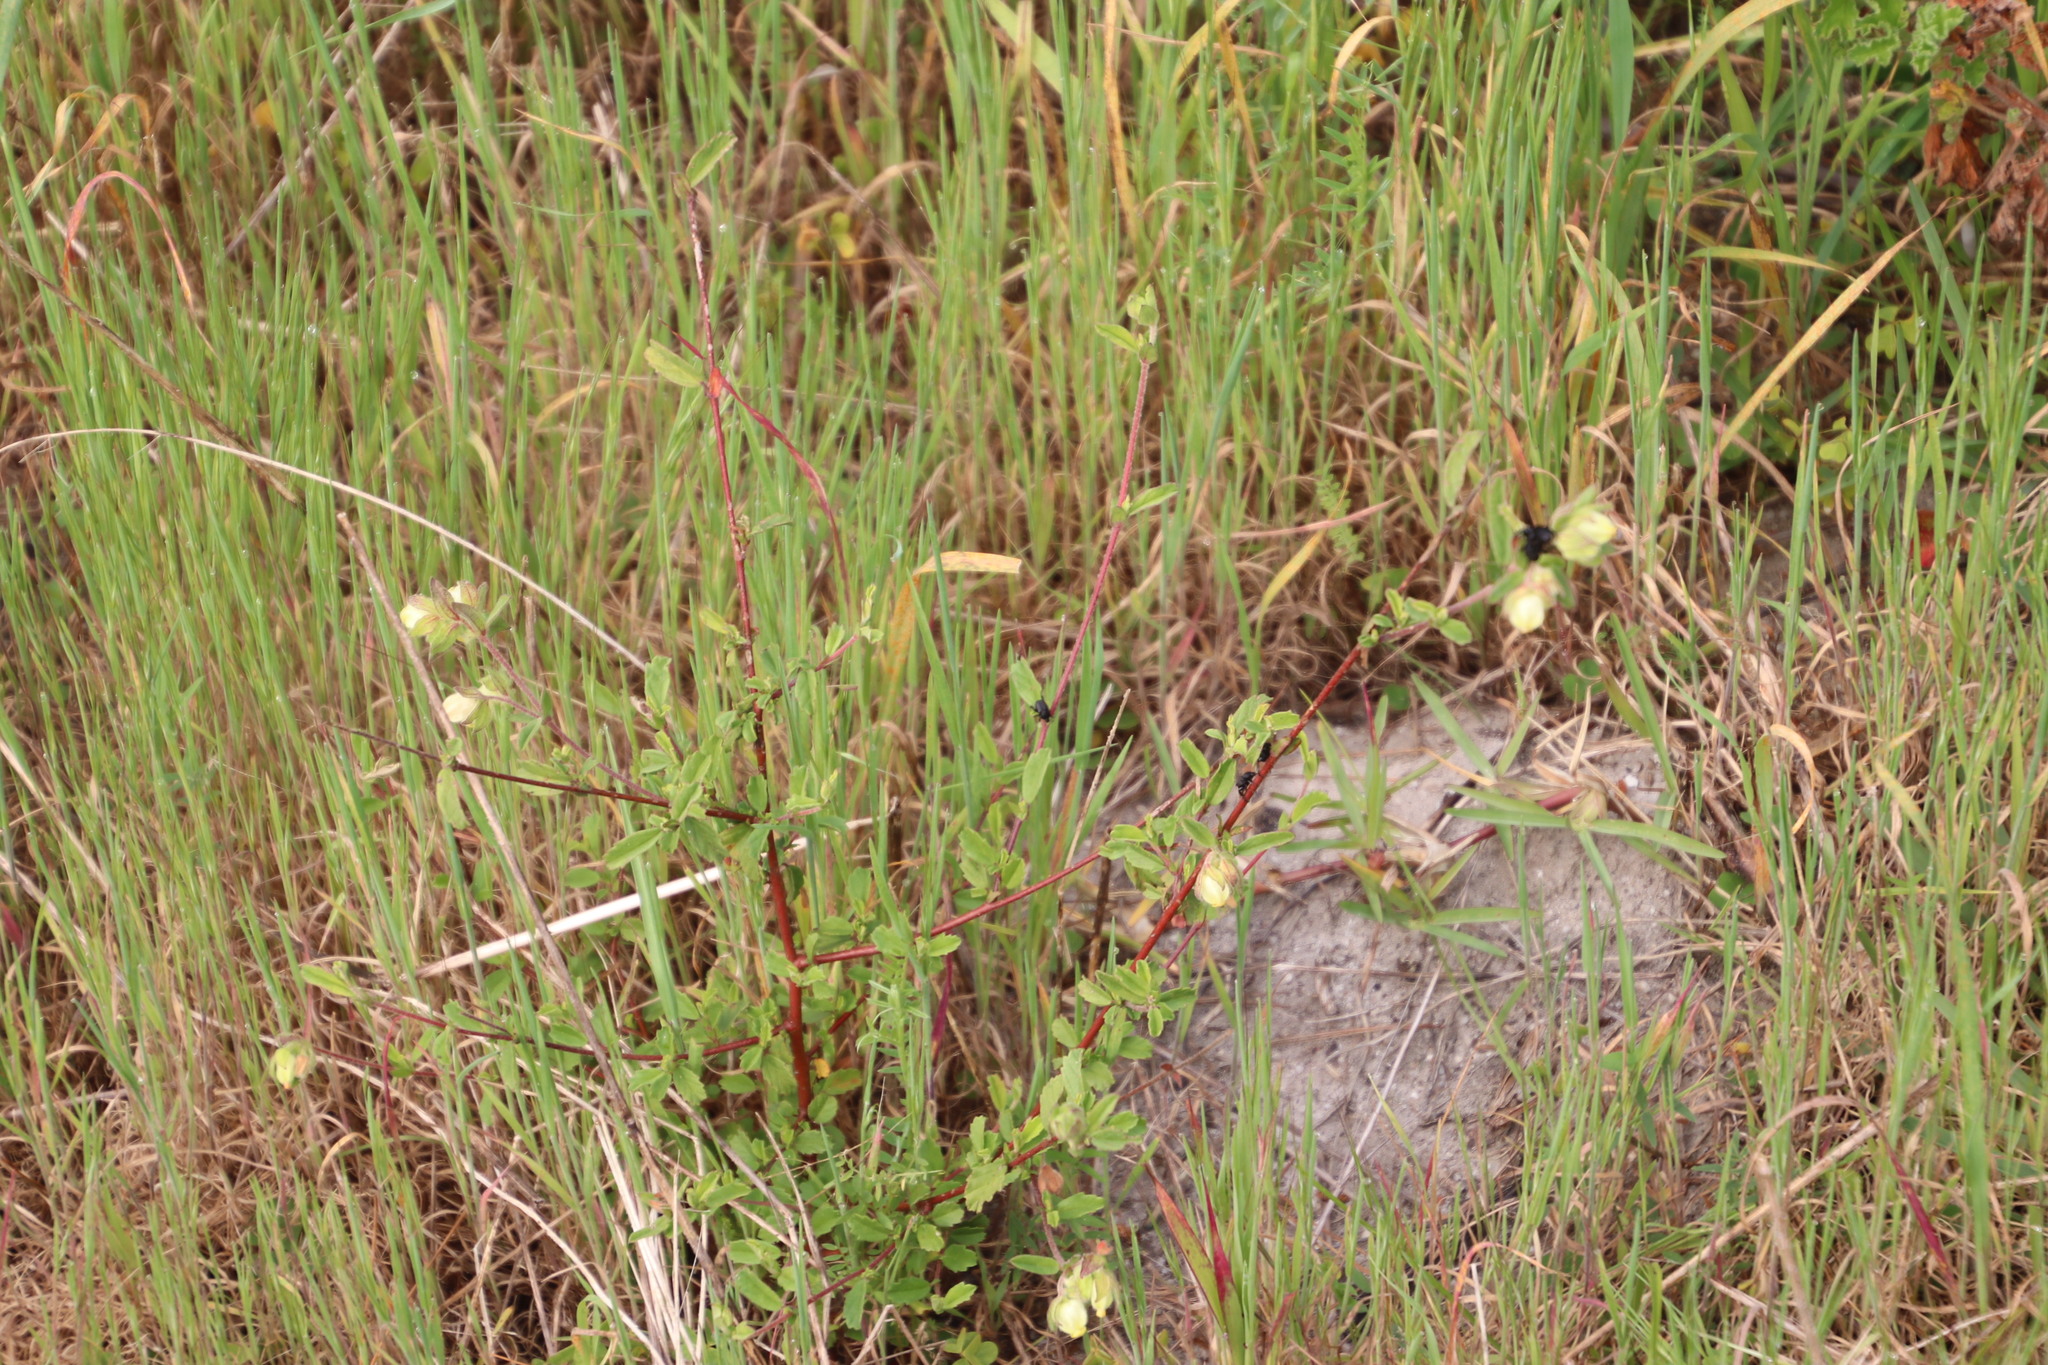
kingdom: Plantae
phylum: Tracheophyta
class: Magnoliopsida
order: Malvales
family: Malvaceae
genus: Hermannia
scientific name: Hermannia hyssopifolia
